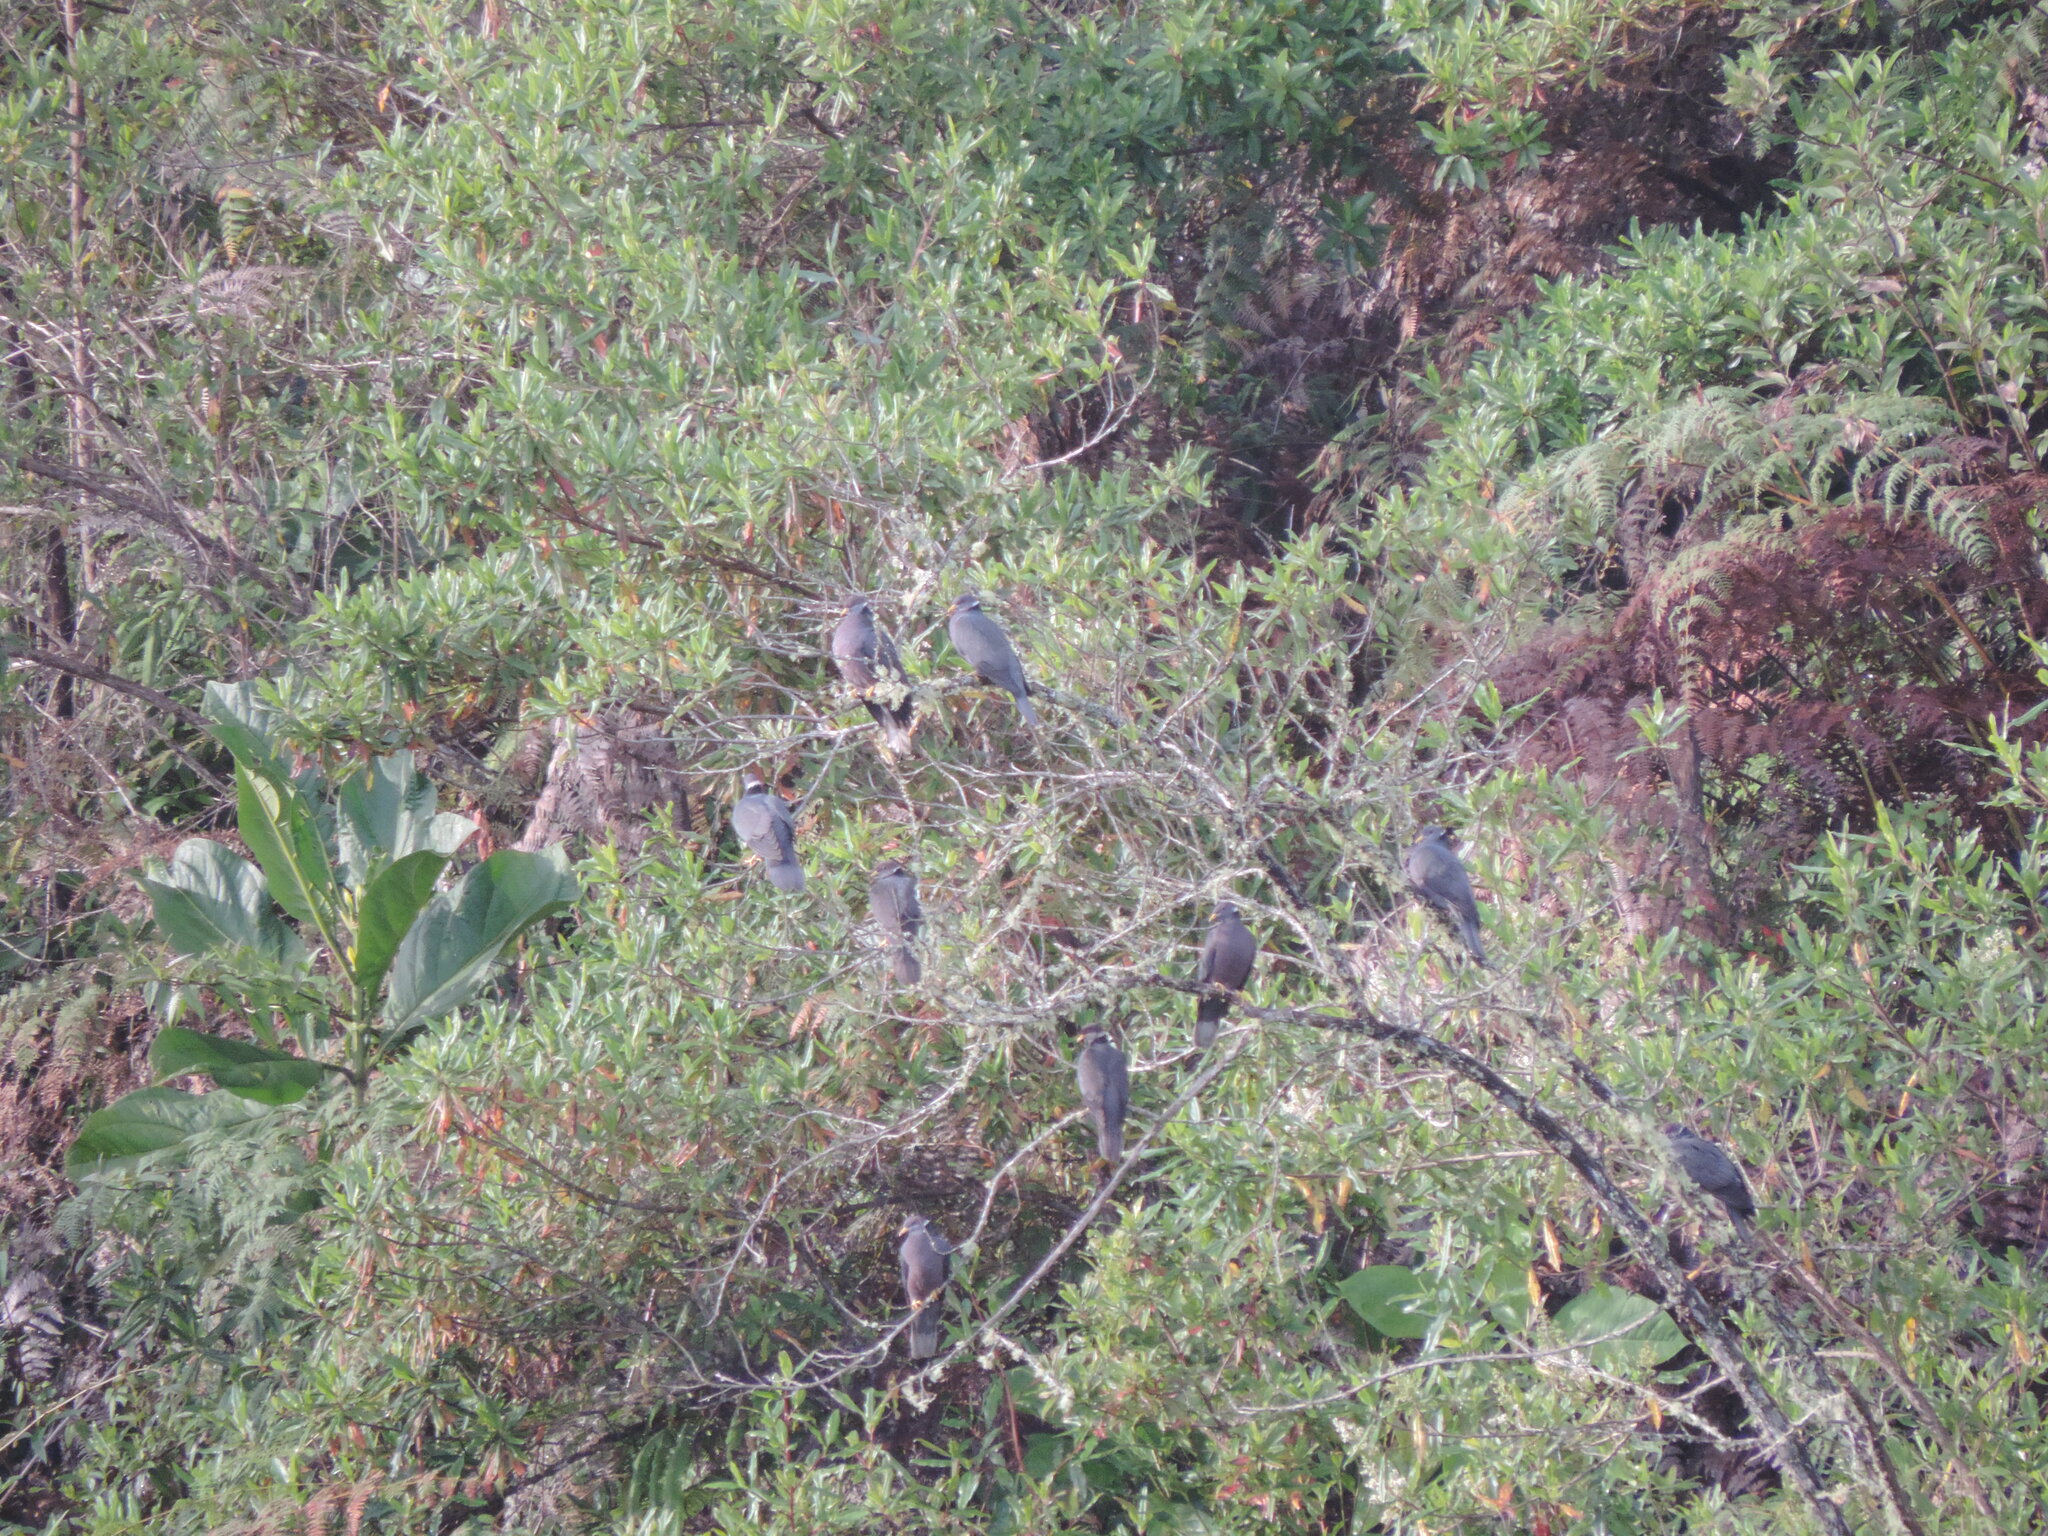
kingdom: Animalia
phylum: Chordata
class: Aves
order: Columbiformes
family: Columbidae
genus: Patagioenas
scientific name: Patagioenas fasciata
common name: Band-tailed pigeon
